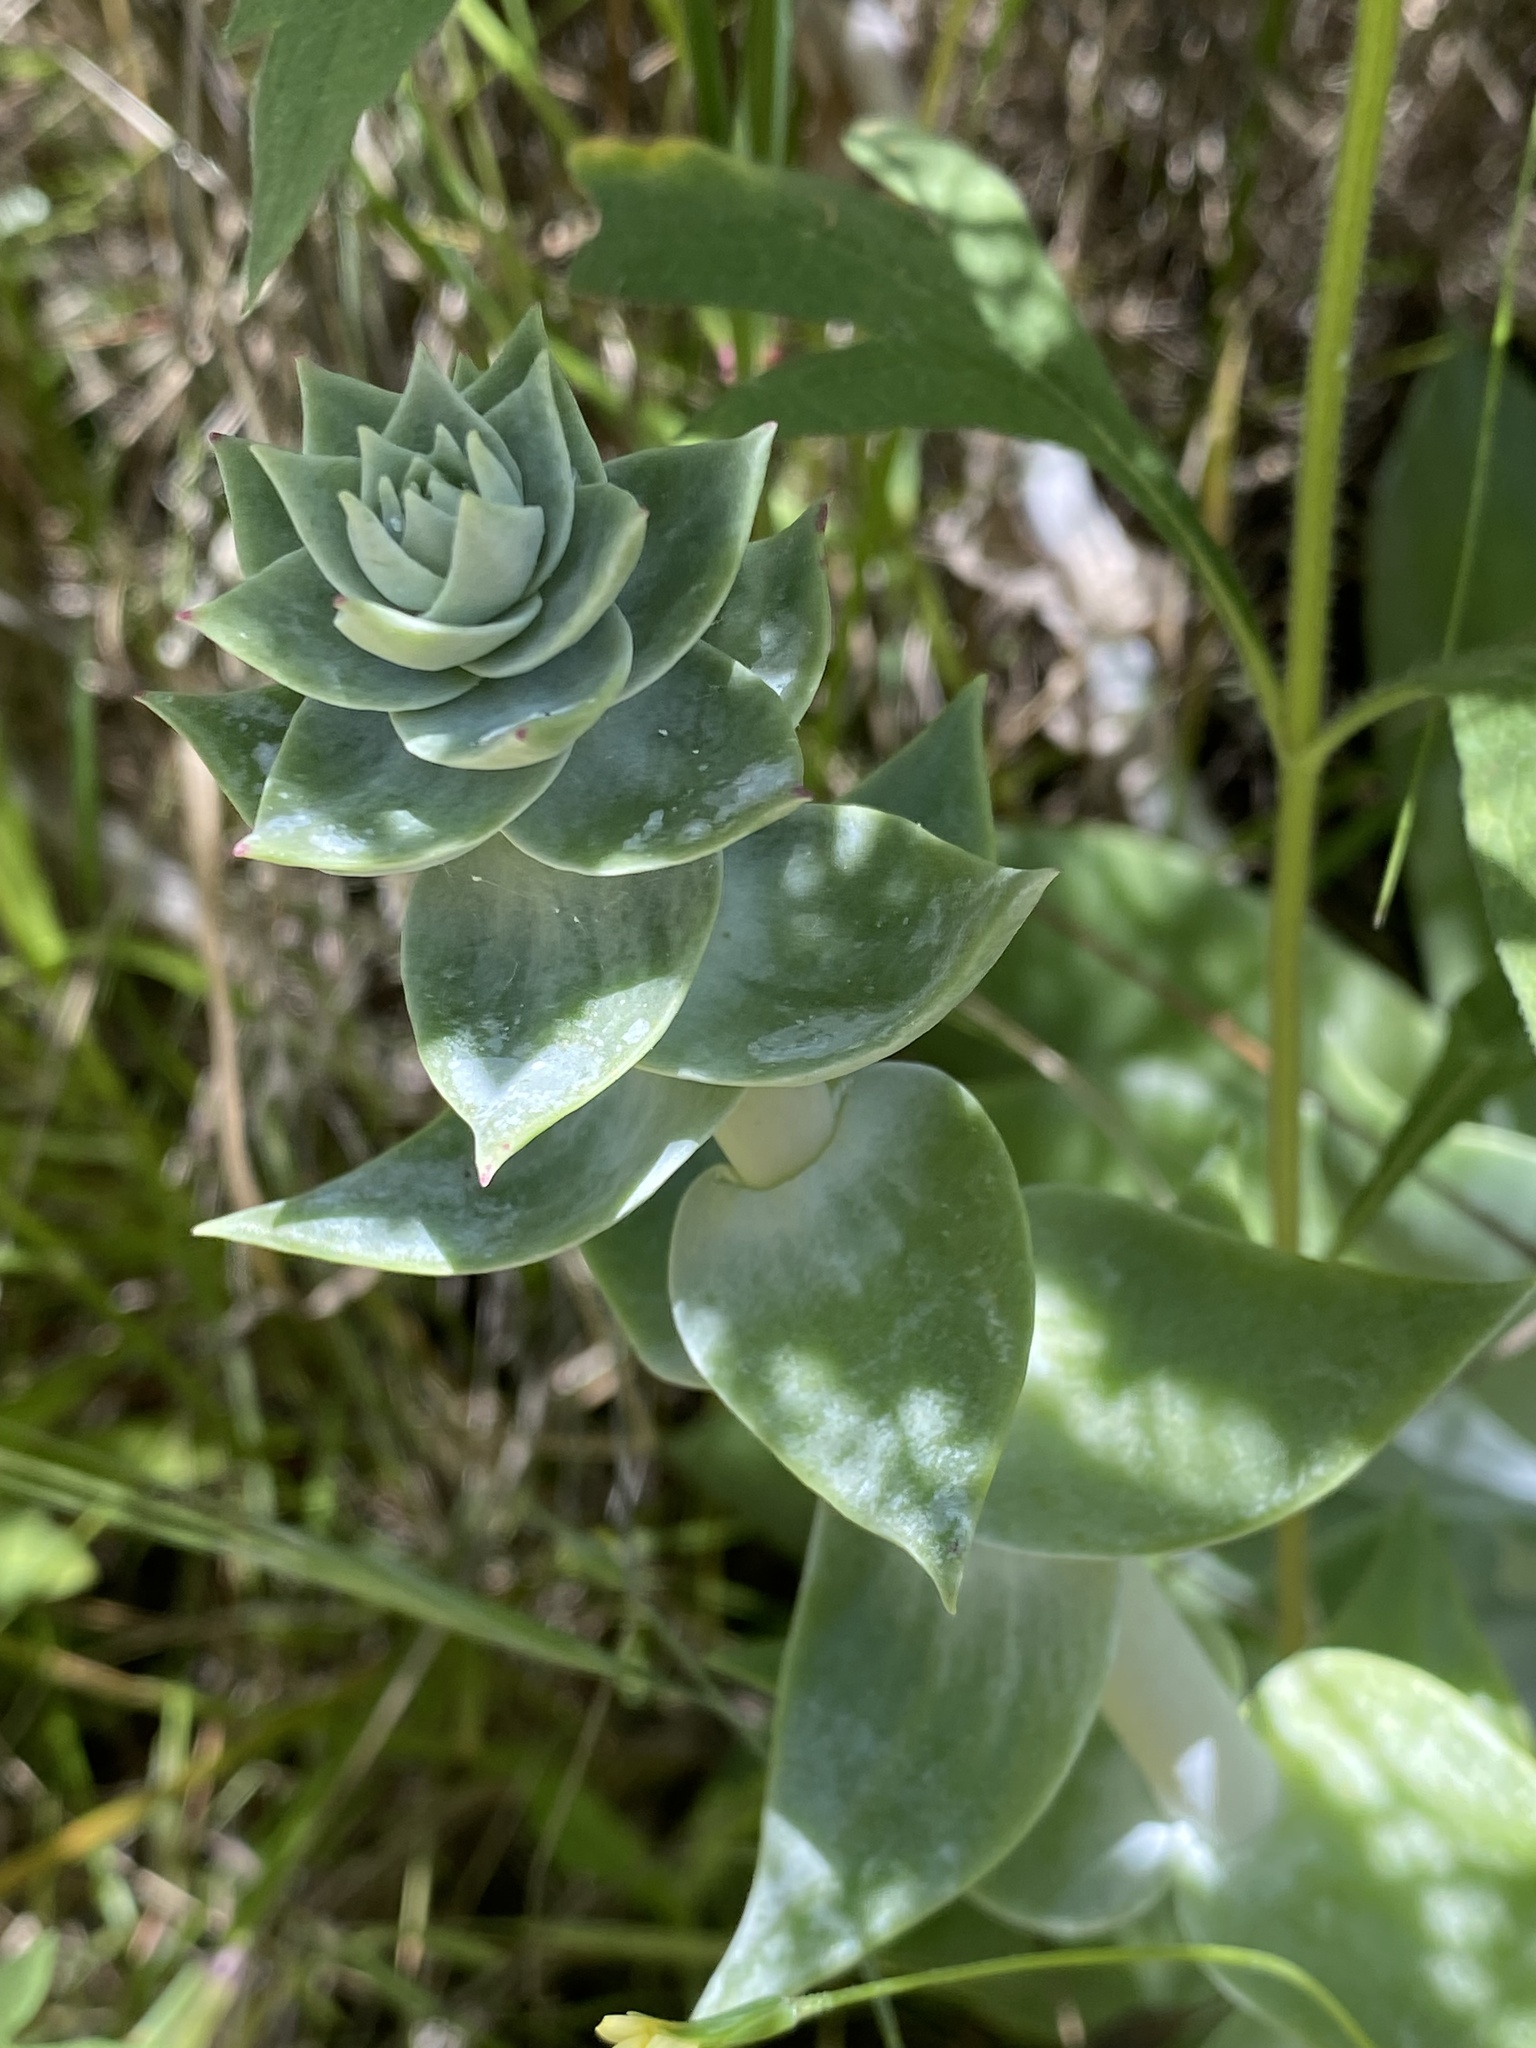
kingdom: Plantae
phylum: Tracheophyta
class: Magnoliopsida
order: Saxifragales
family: Crassulaceae
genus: Dudleya
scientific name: Dudleya pulverulenta
